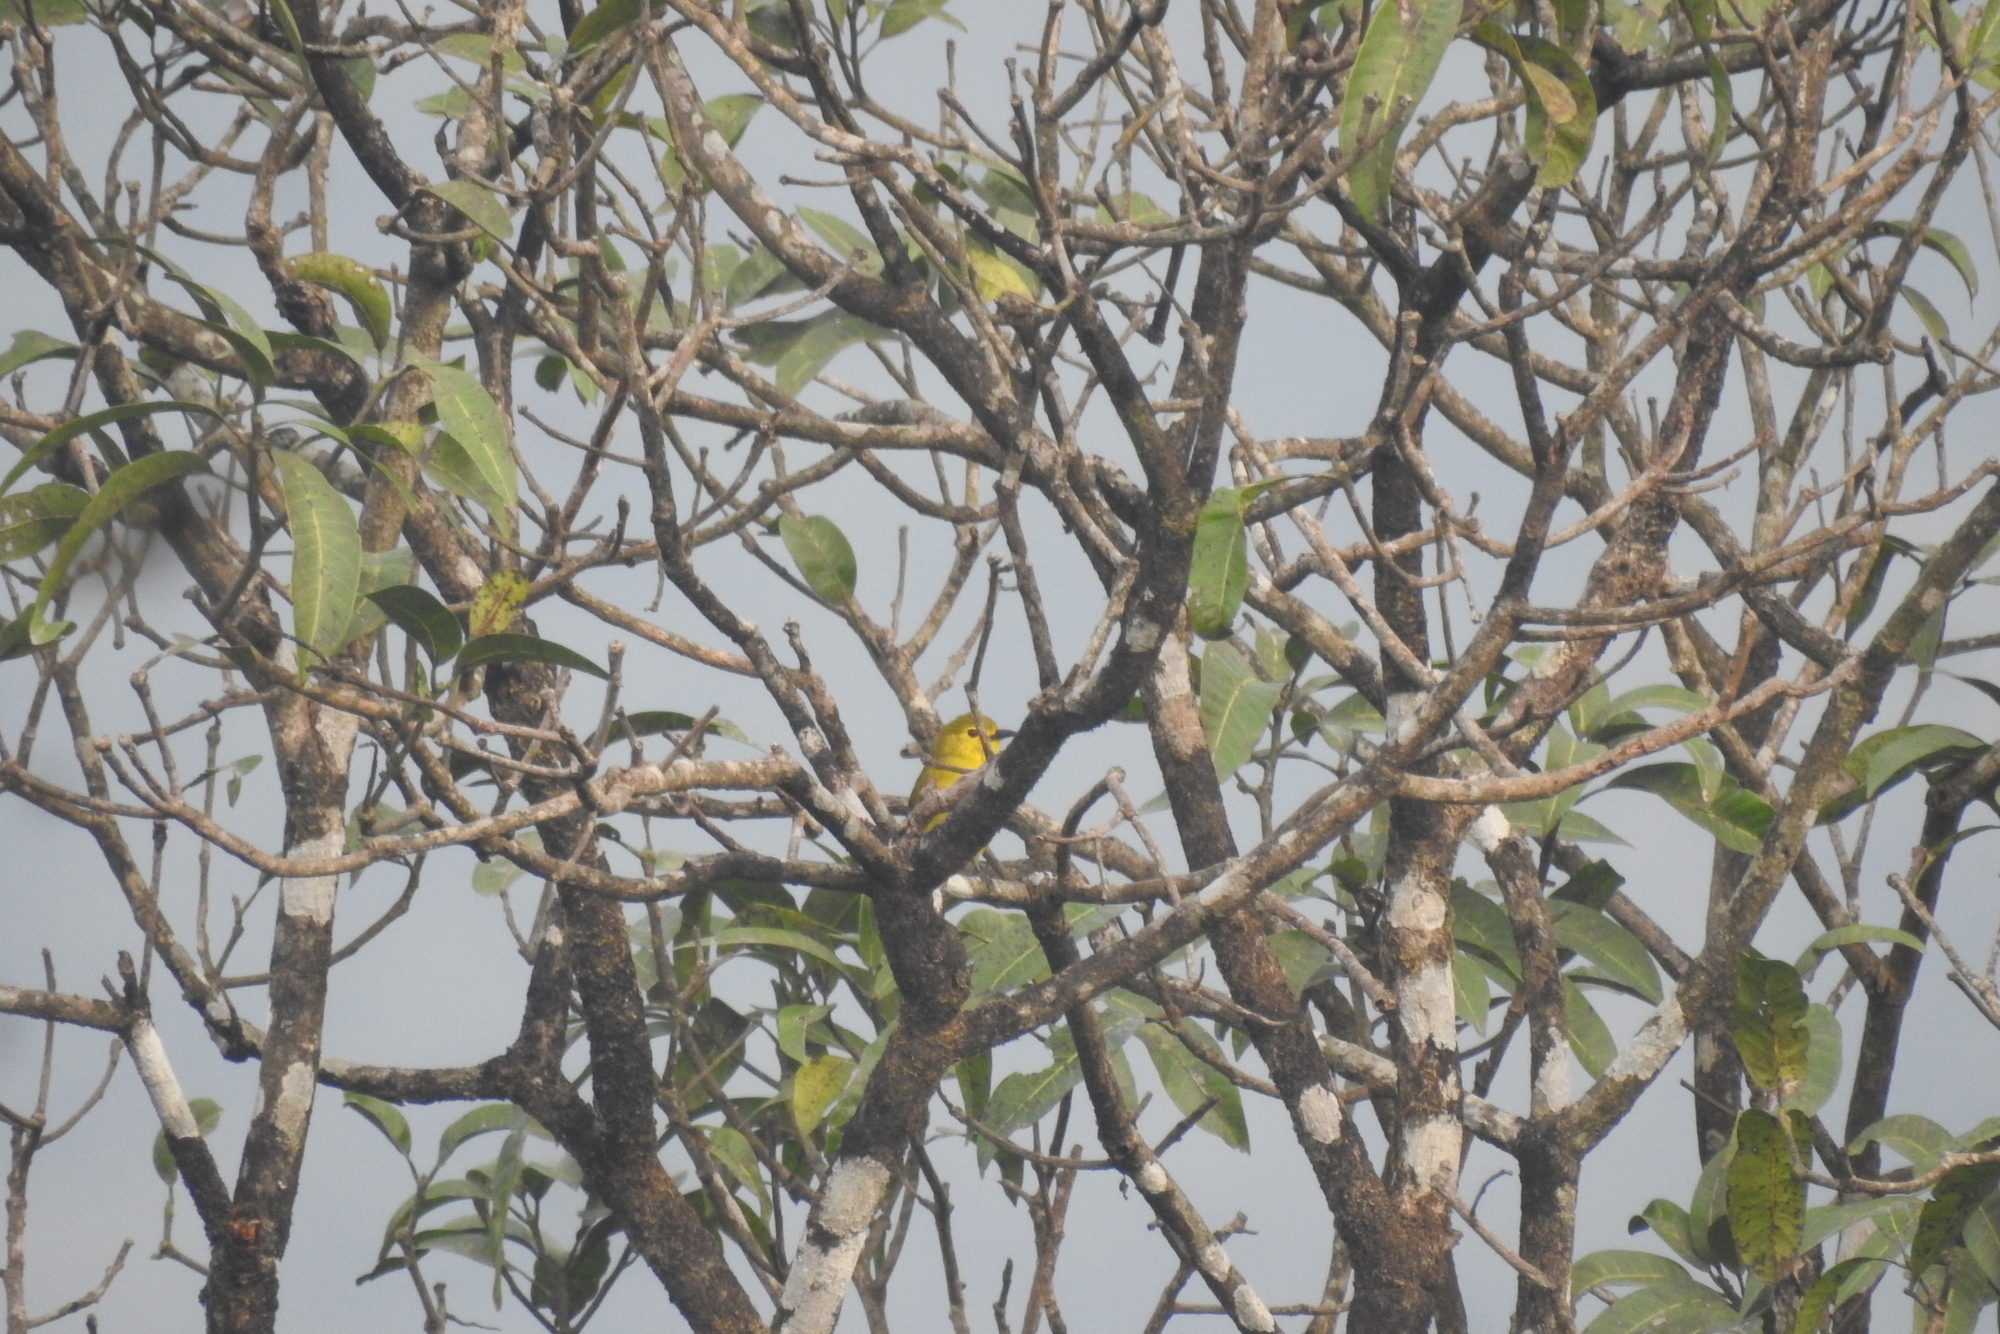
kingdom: Animalia
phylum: Chordata
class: Aves
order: Passeriformes
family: Oriolidae
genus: Oriolus
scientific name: Oriolus kundoo
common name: Indian golden oriole
